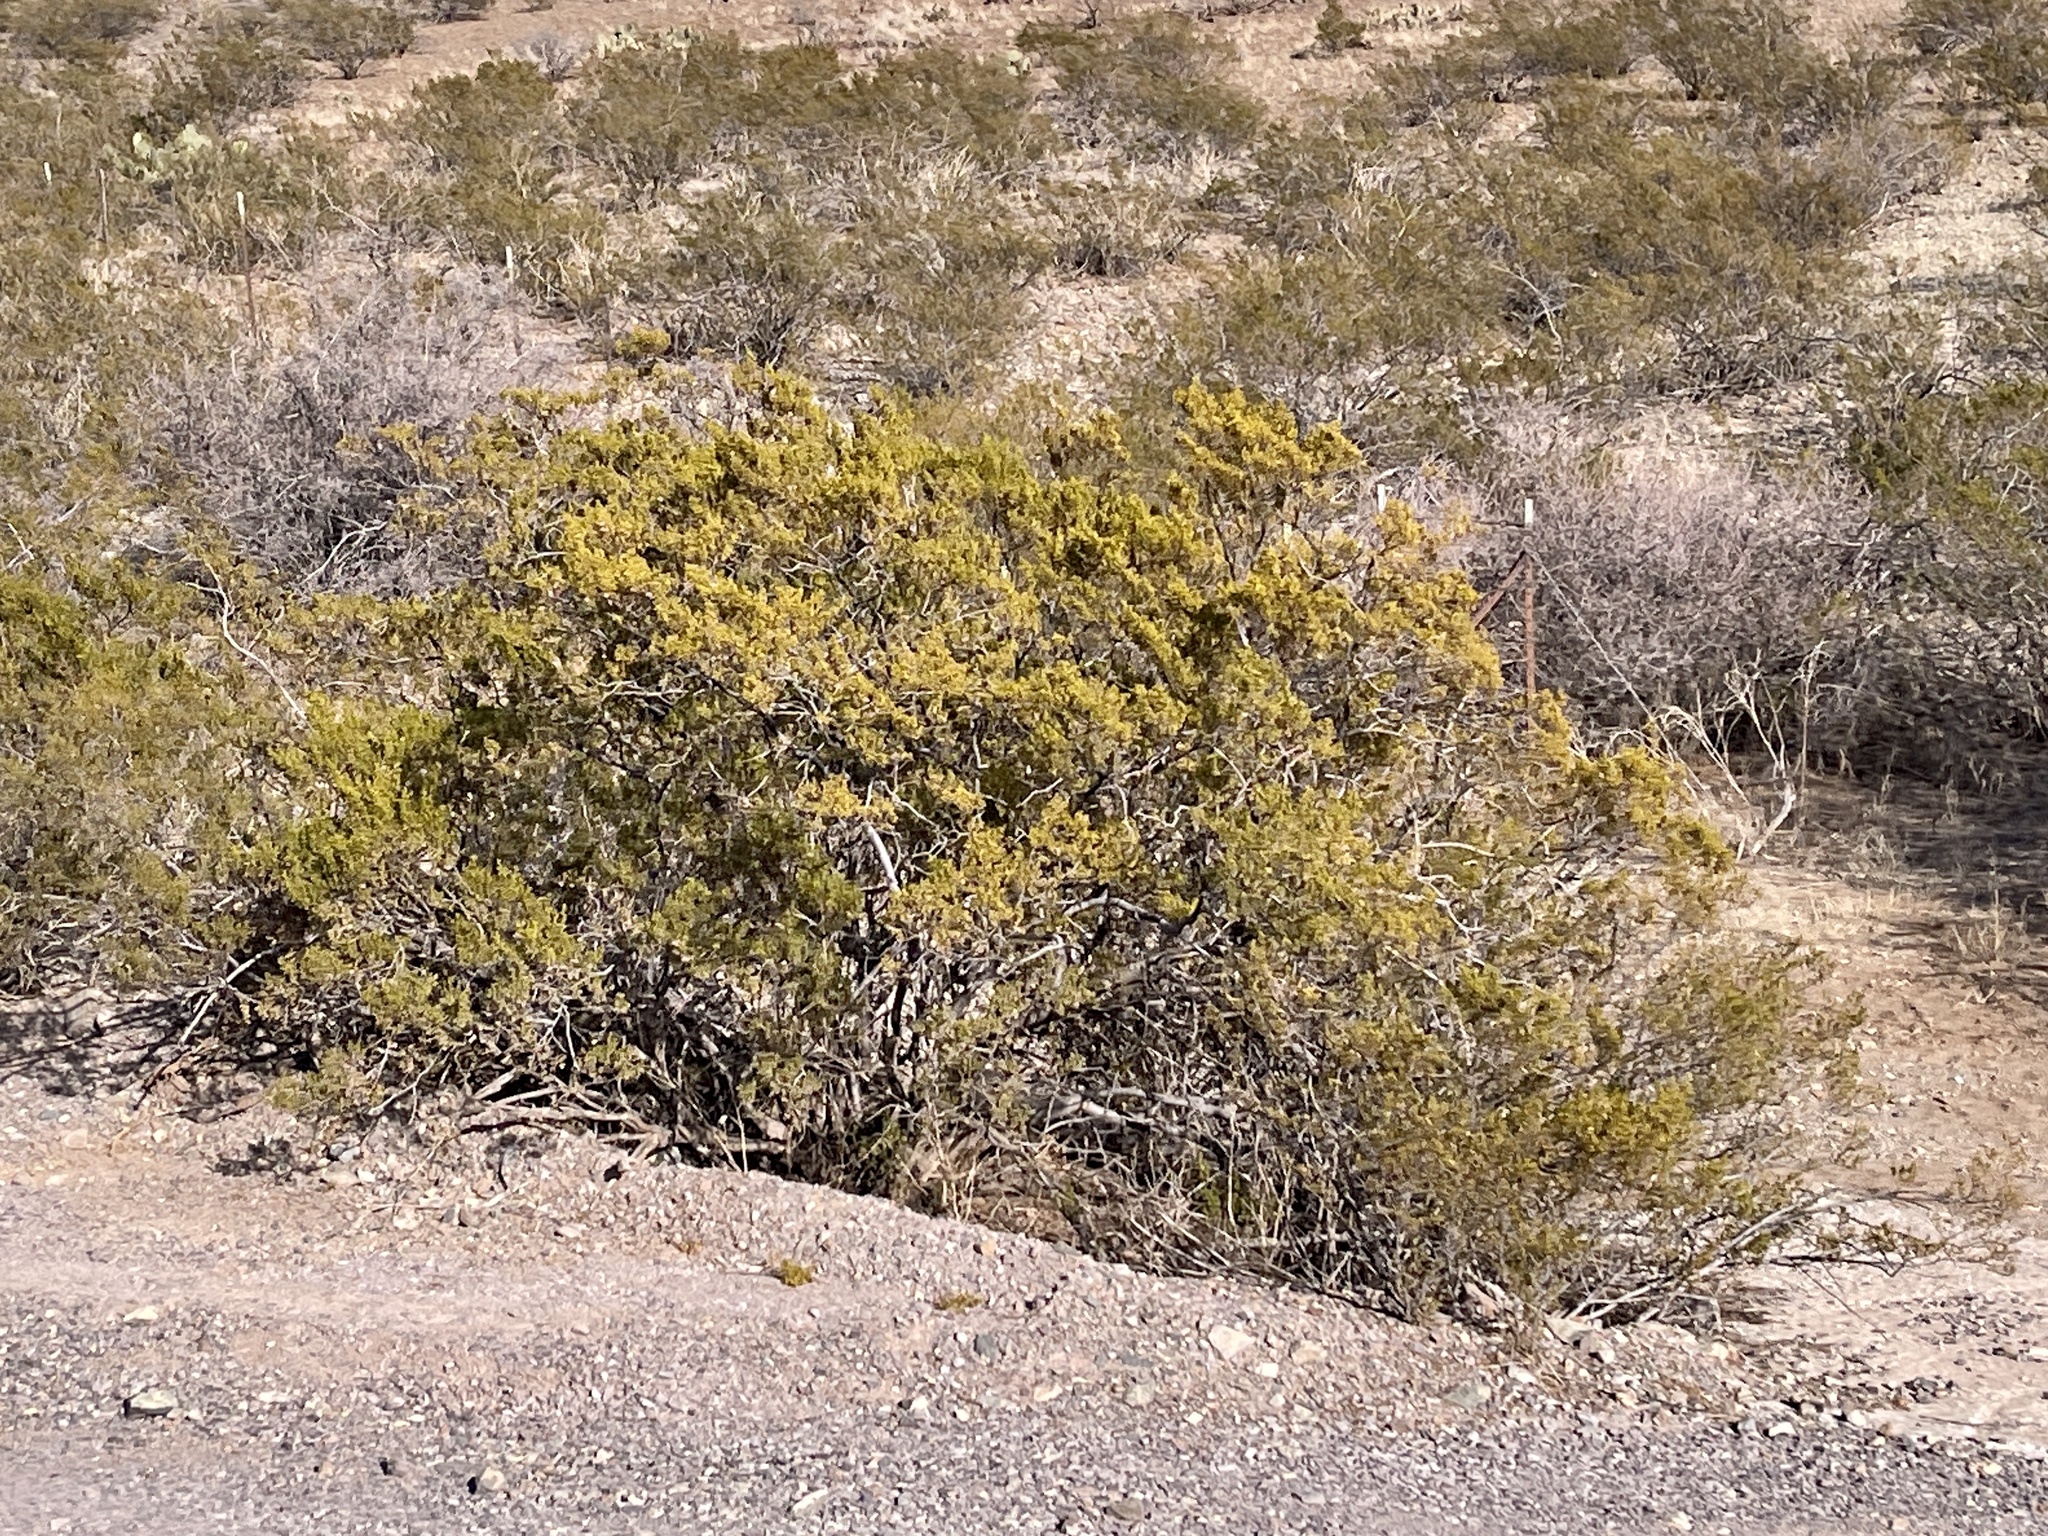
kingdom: Plantae
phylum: Tracheophyta
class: Magnoliopsida
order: Zygophyllales
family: Zygophyllaceae
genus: Larrea
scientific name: Larrea tridentata
